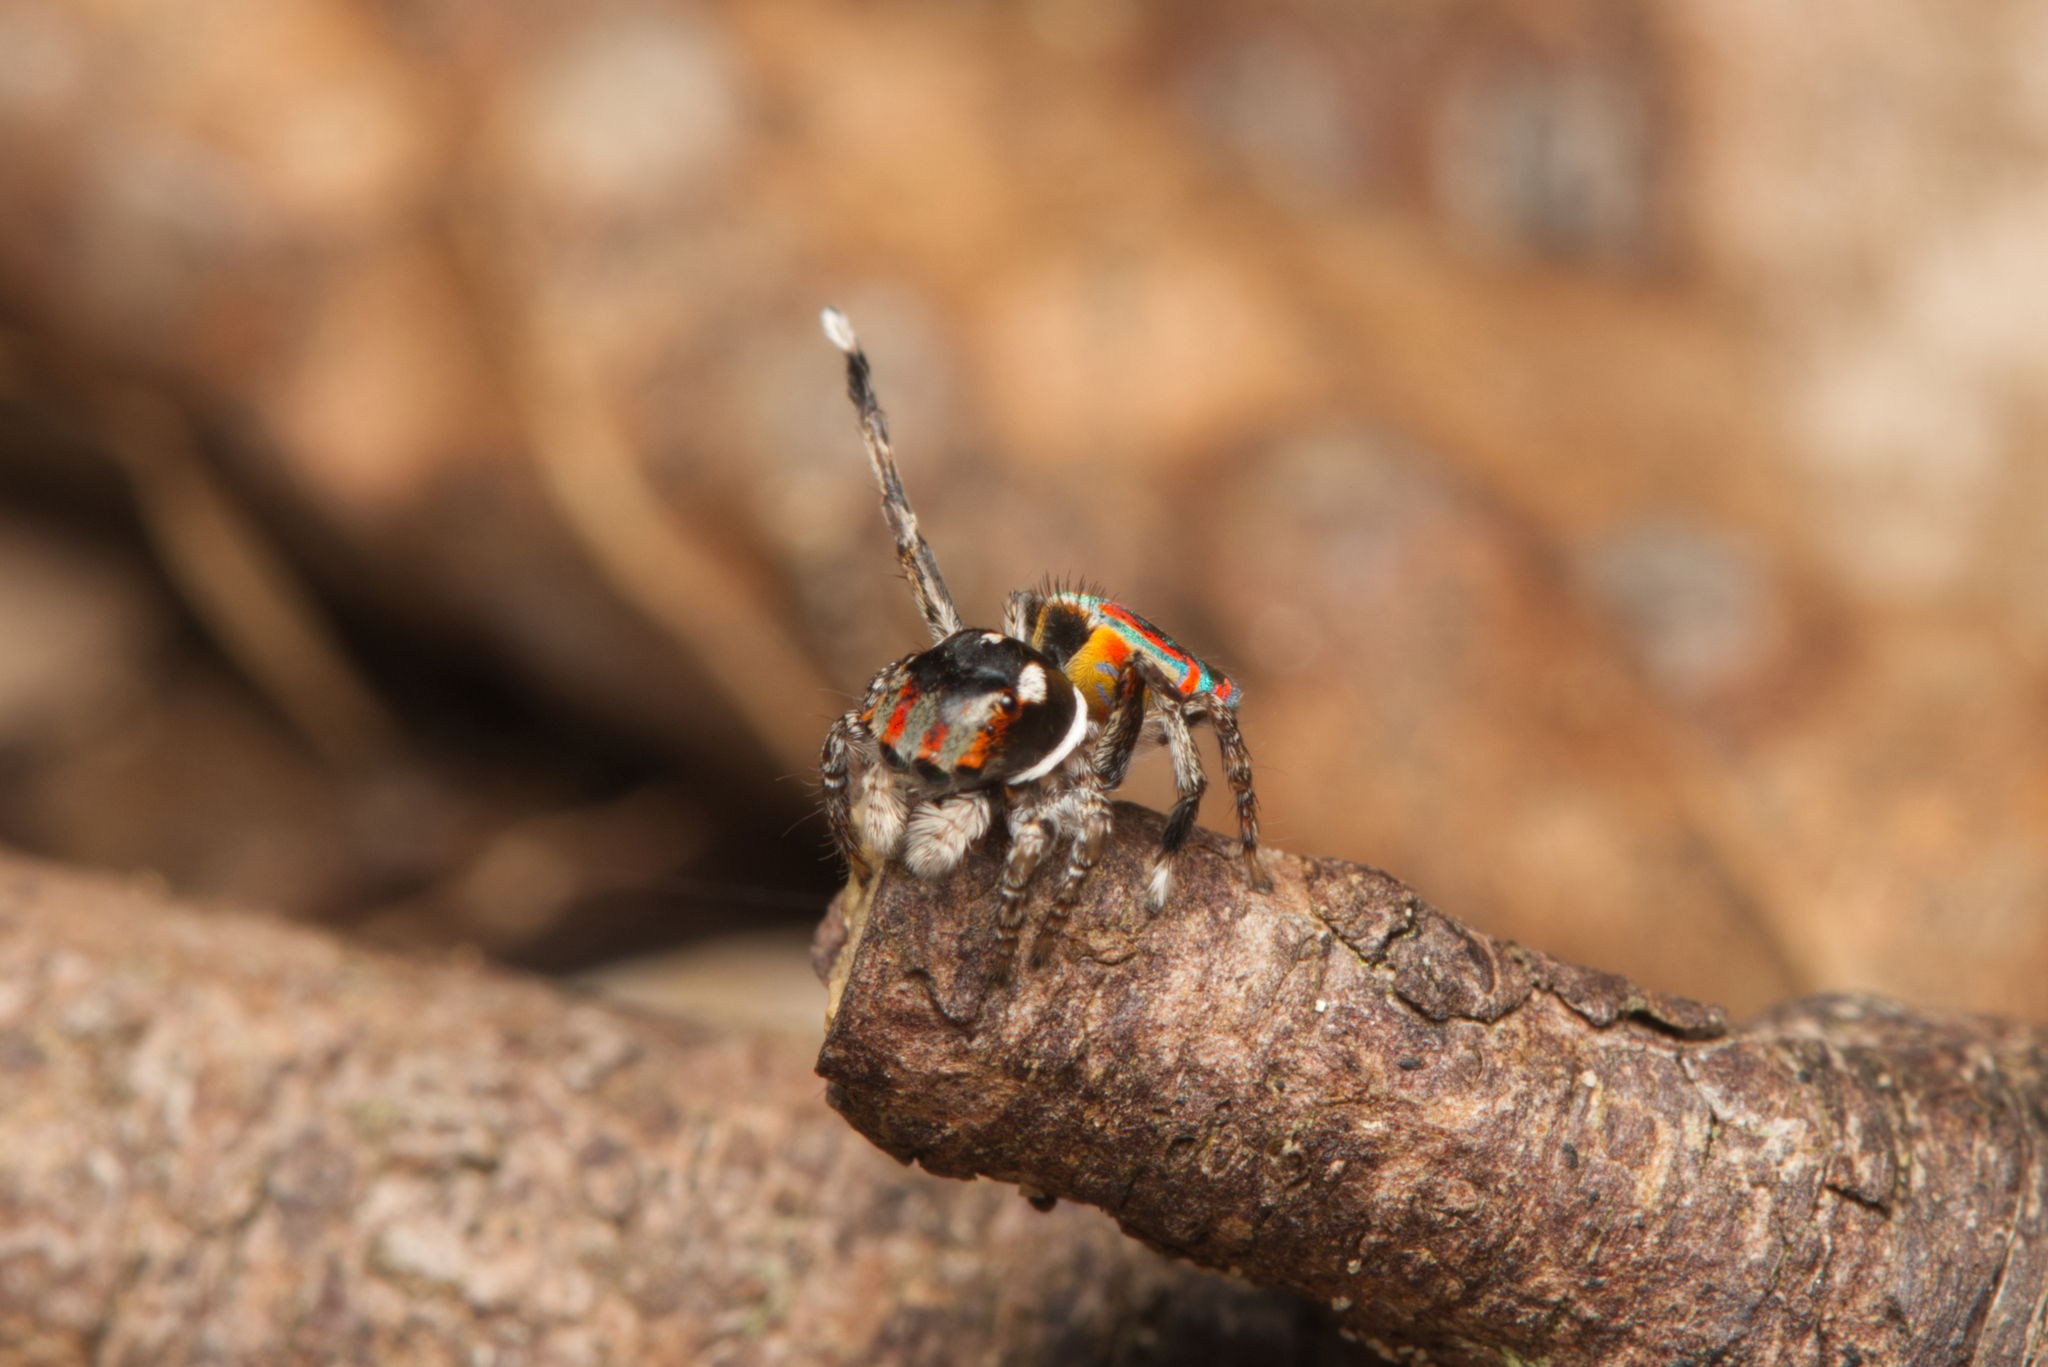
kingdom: Animalia
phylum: Arthropoda
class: Arachnida
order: Araneae
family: Salticidae
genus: Maratus
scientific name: Maratus volans
